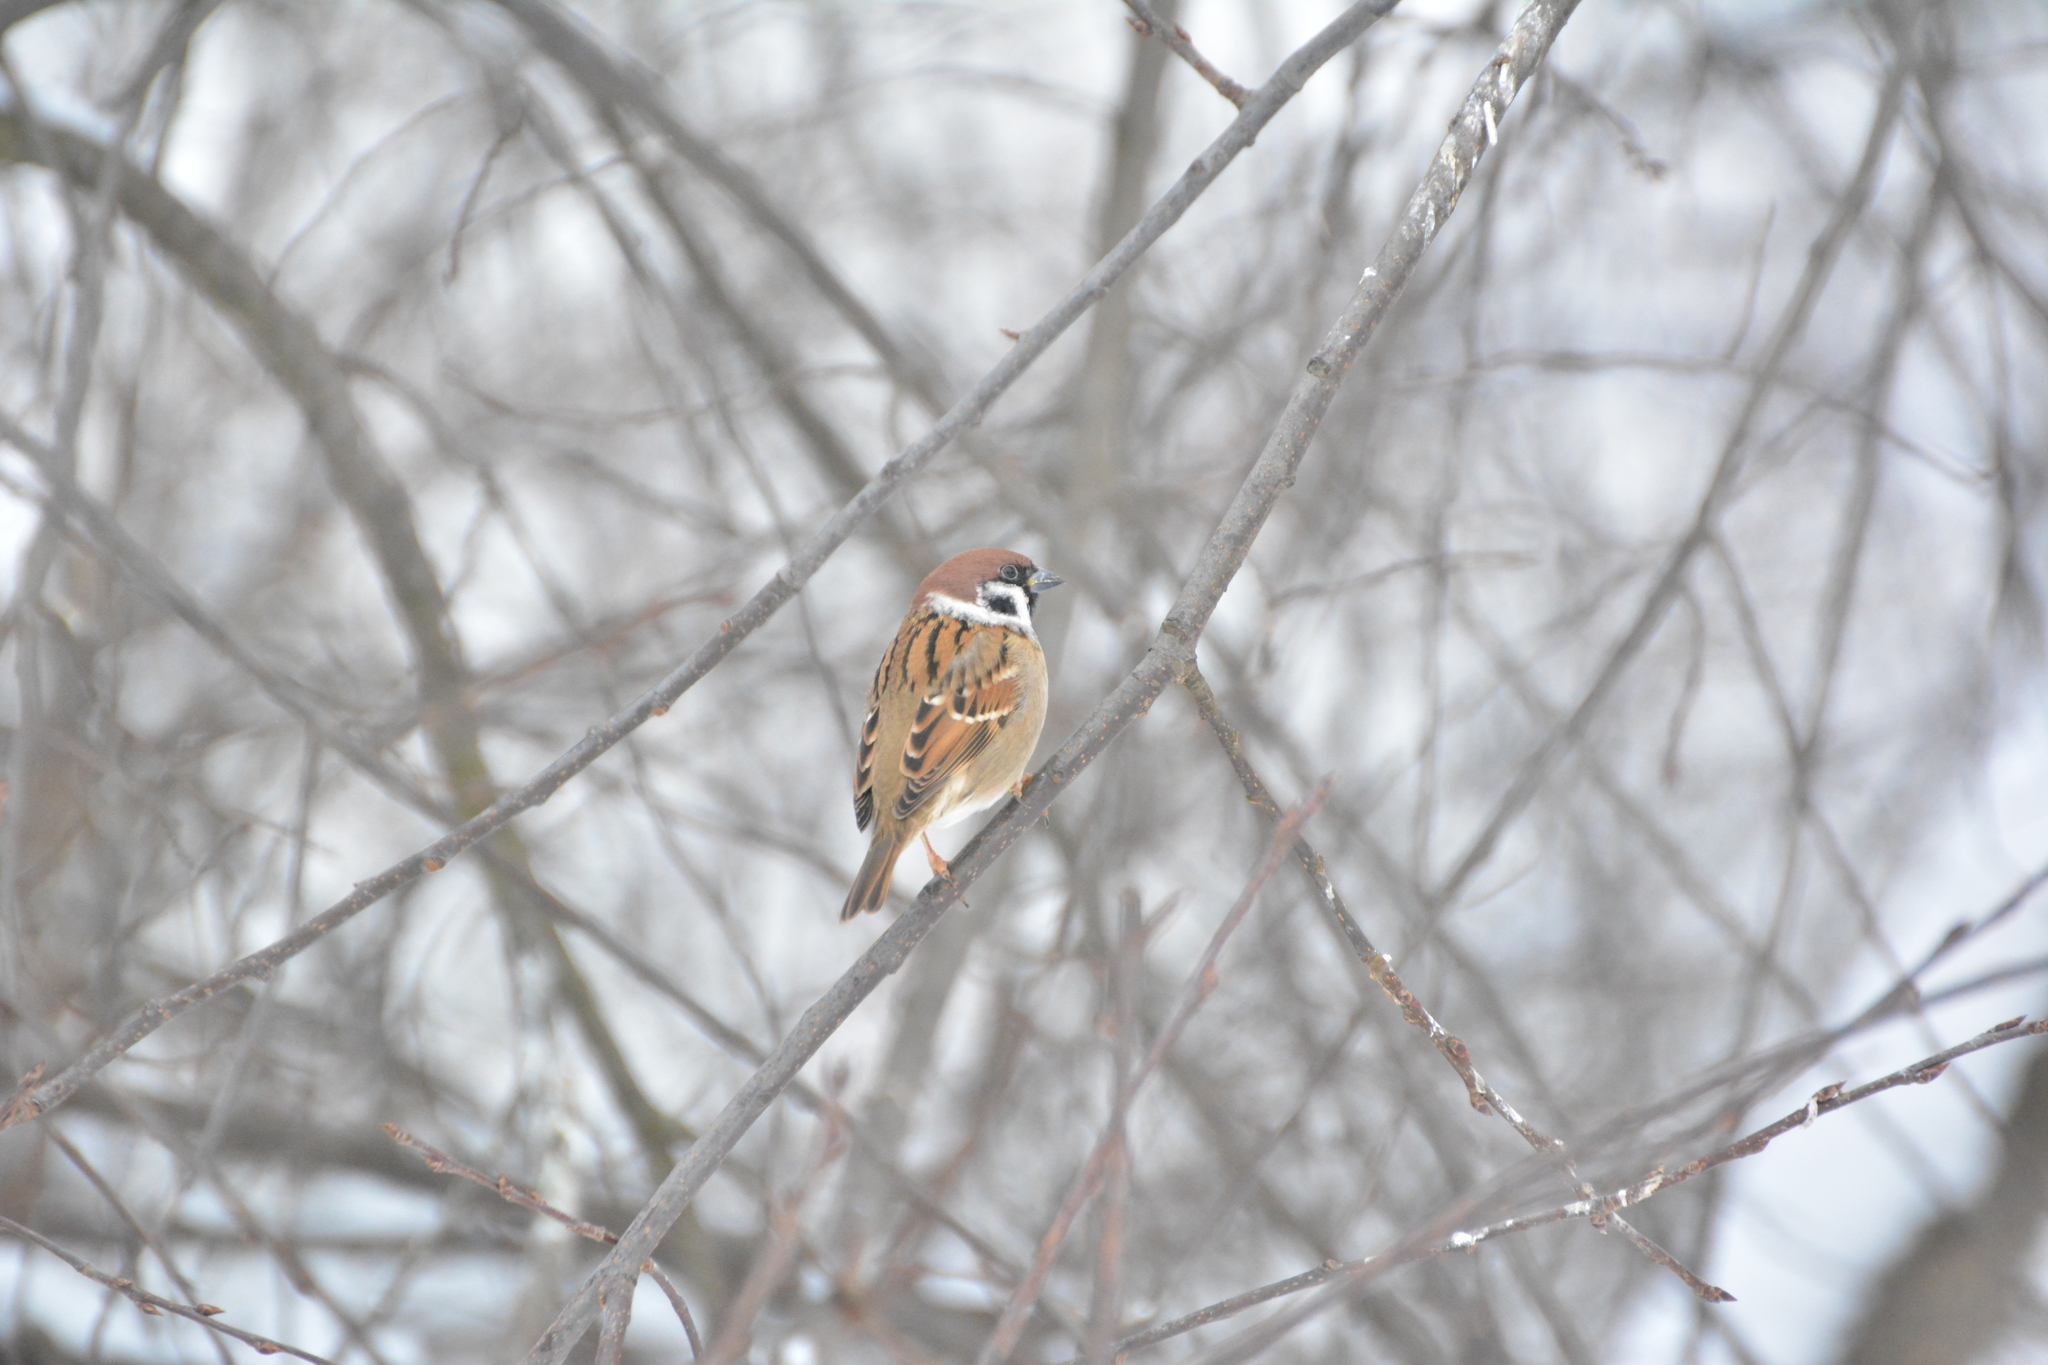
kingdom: Animalia
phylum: Chordata
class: Aves
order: Passeriformes
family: Passeridae
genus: Passer
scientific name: Passer montanus
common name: Eurasian tree sparrow
